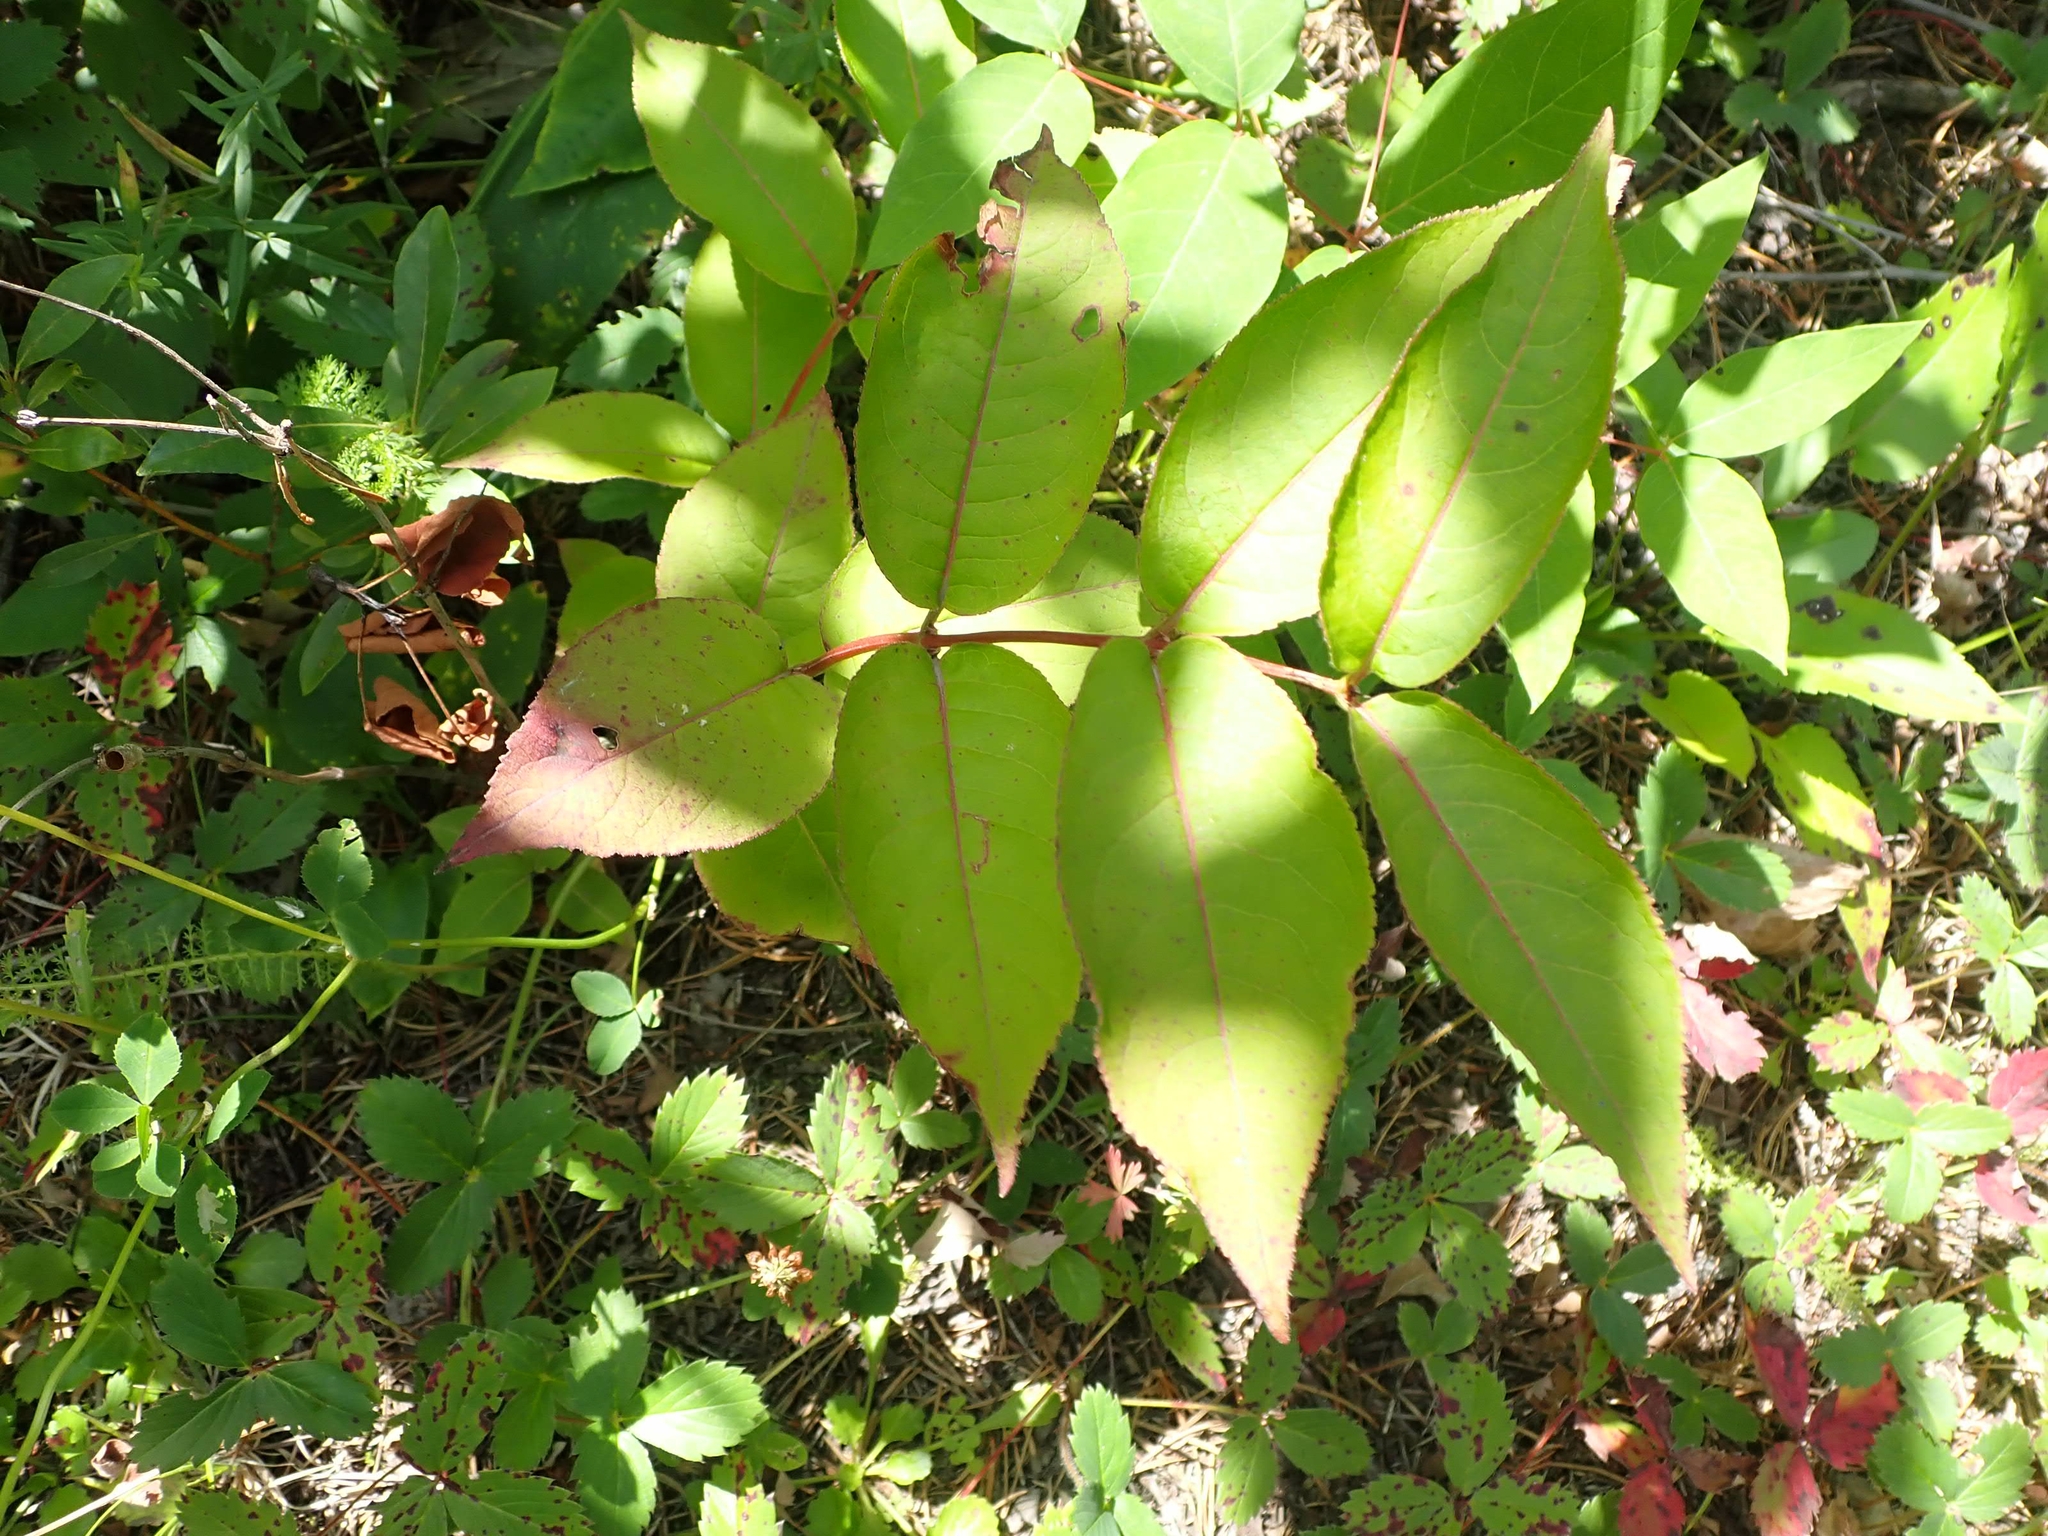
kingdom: Plantae
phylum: Tracheophyta
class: Magnoliopsida
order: Dipsacales
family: Caprifoliaceae
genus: Diervilla
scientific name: Diervilla lonicera
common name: Bush-honeysuckle
